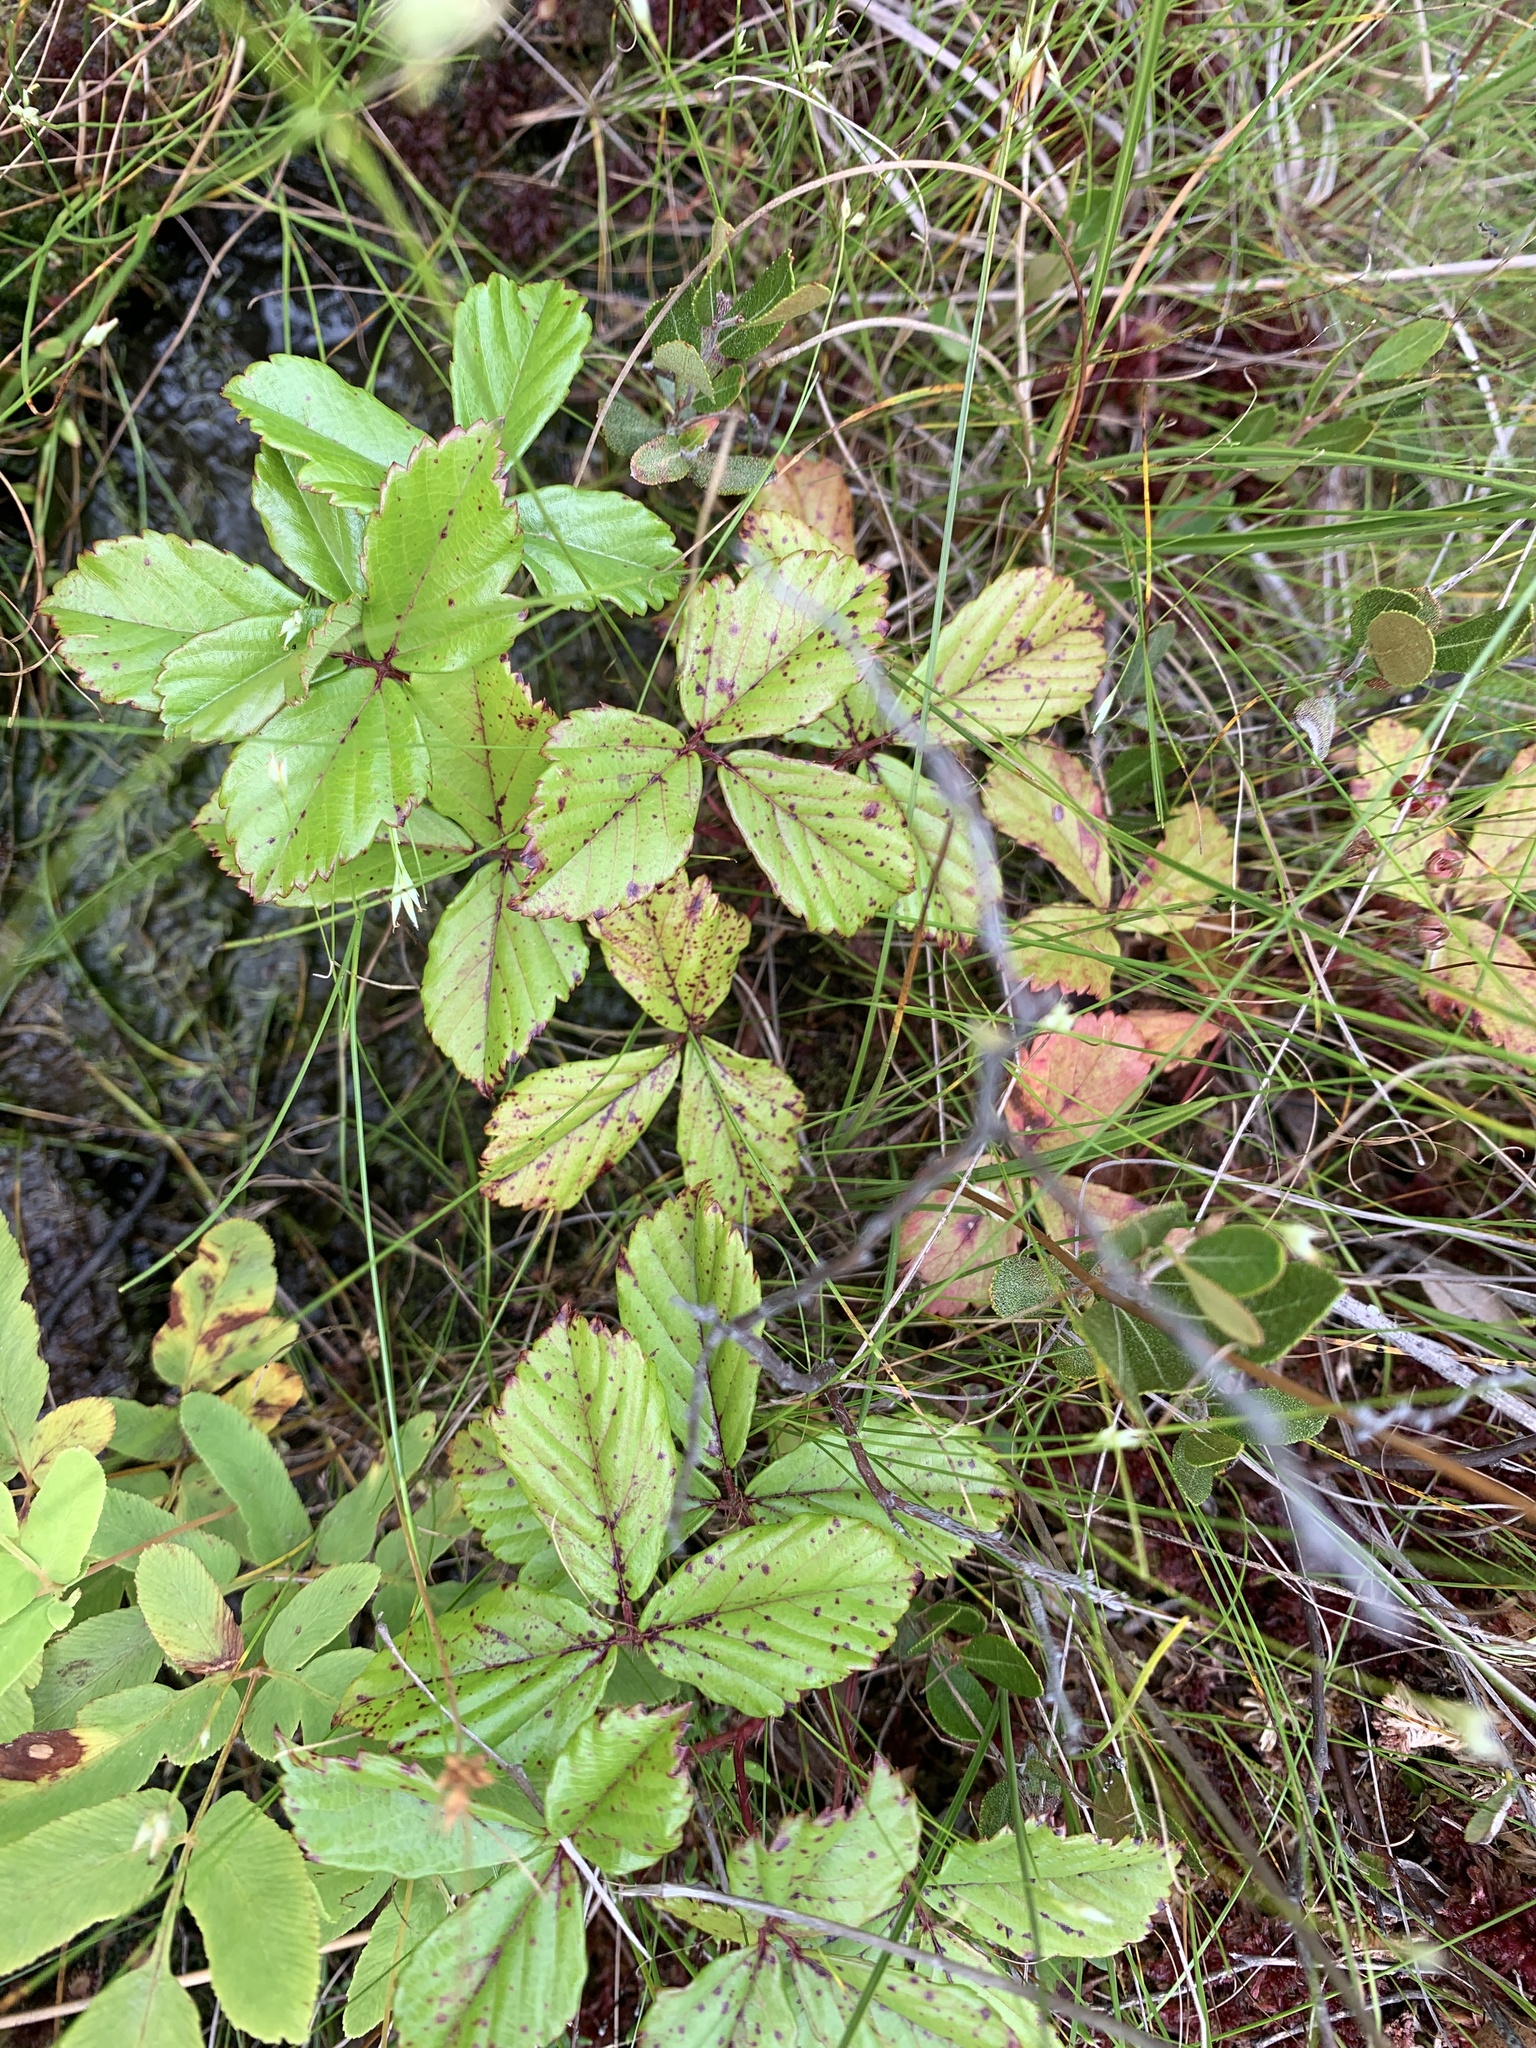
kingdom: Plantae
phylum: Tracheophyta
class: Magnoliopsida
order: Rosales
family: Rosaceae
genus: Rubus
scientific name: Rubus hispidus
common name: Running blackberry
